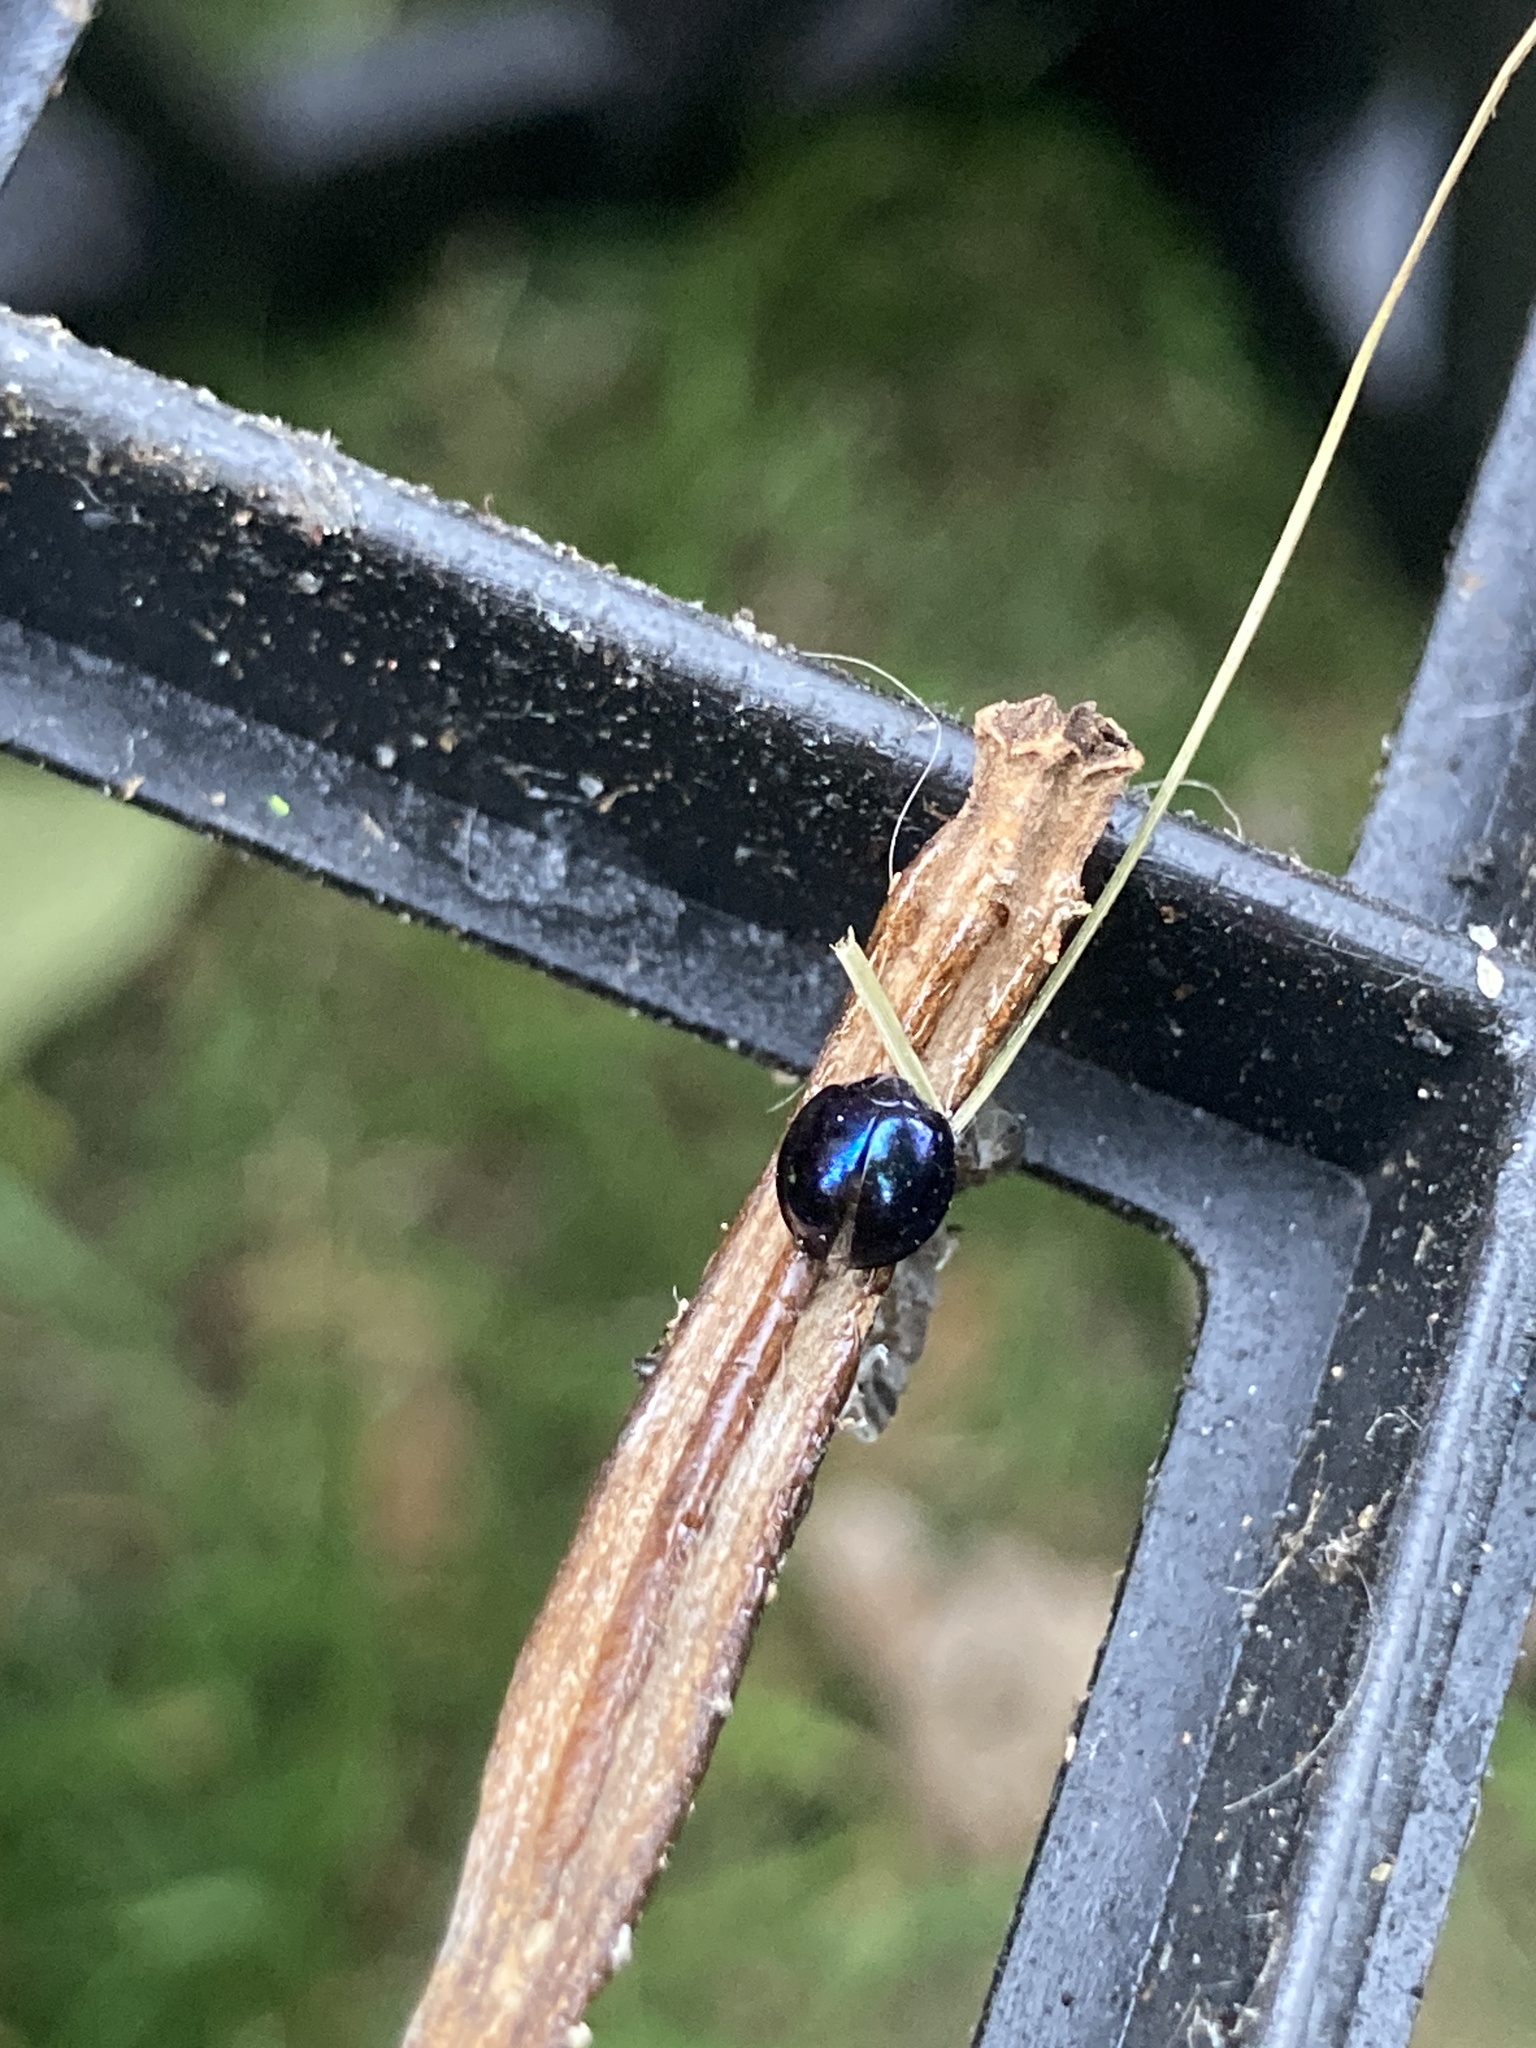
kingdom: Animalia
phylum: Arthropoda
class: Insecta
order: Coleoptera
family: Coccinellidae
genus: Halmus
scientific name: Halmus chalybeus
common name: Steel blue ladybird beetle
